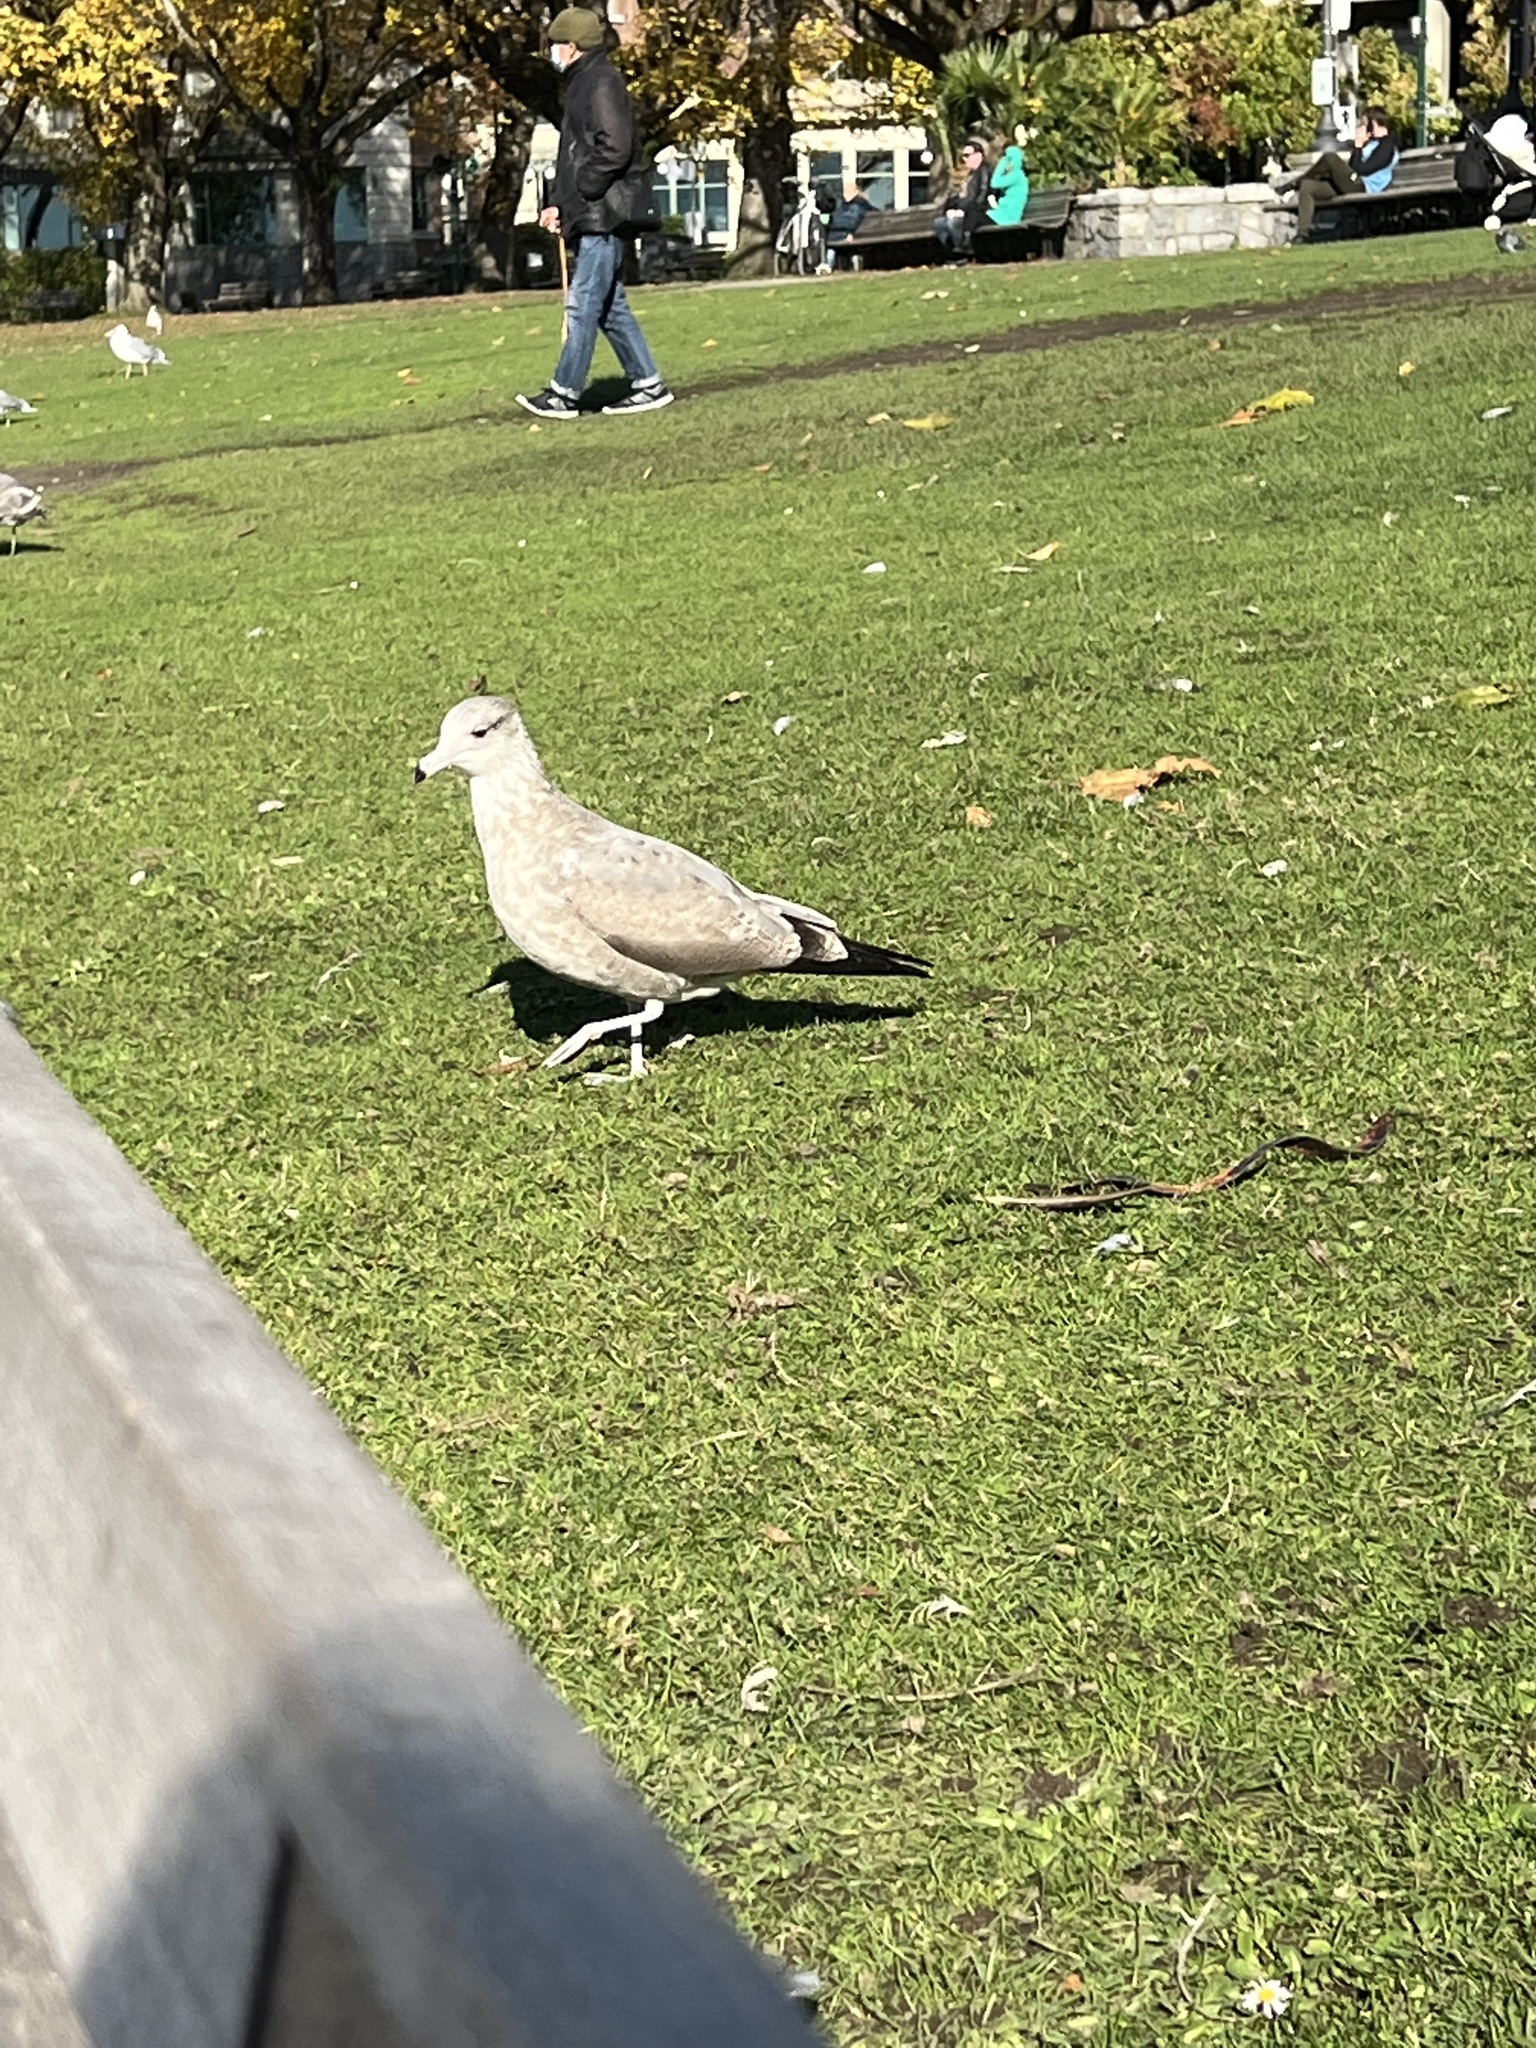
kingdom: Animalia
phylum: Chordata
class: Aves
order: Charadriiformes
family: Laridae
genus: Larus
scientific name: Larus californicus
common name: California gull
